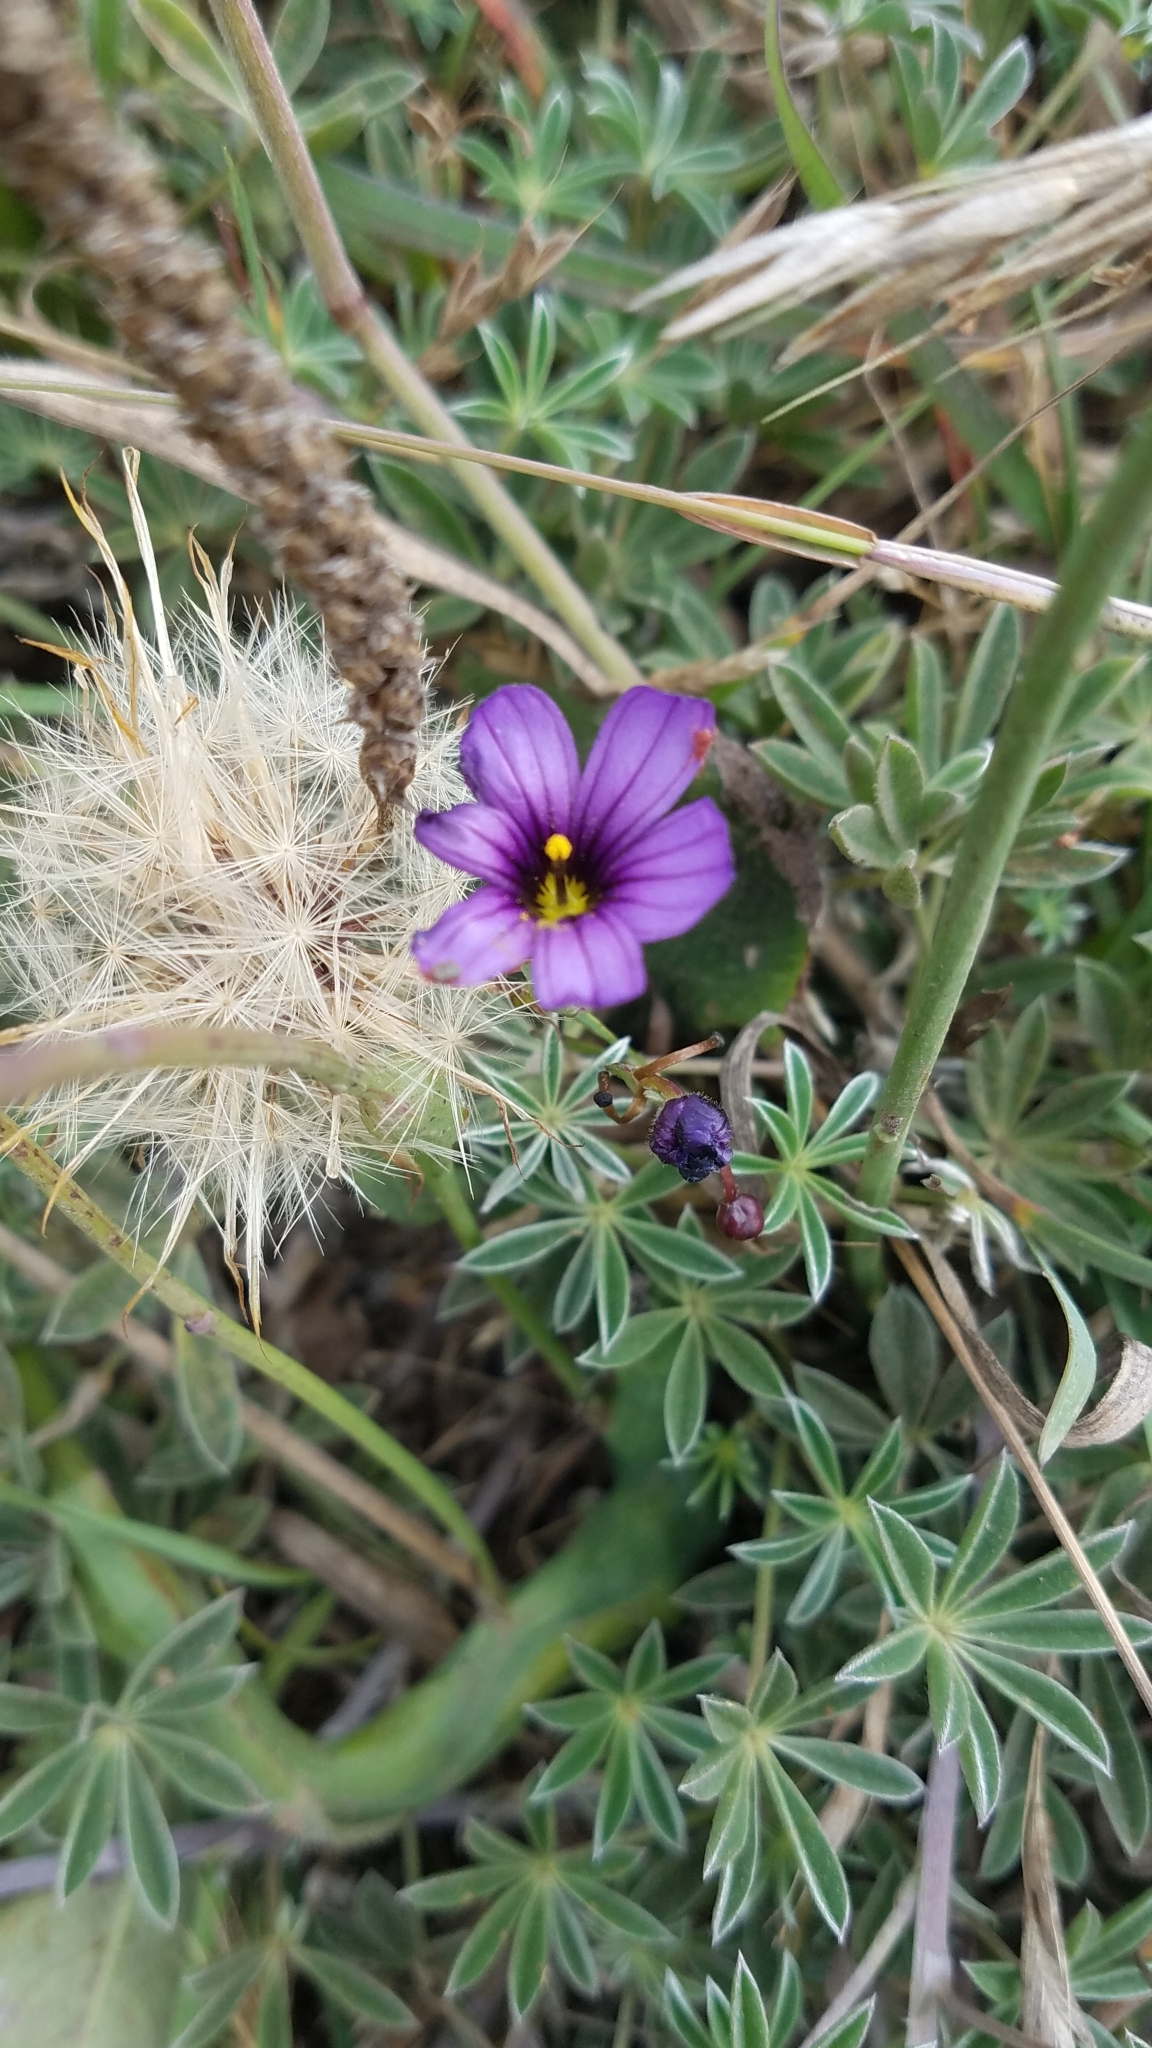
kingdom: Plantae
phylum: Tracheophyta
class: Liliopsida
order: Asparagales
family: Iridaceae
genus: Sisyrinchium
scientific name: Sisyrinchium bellum
